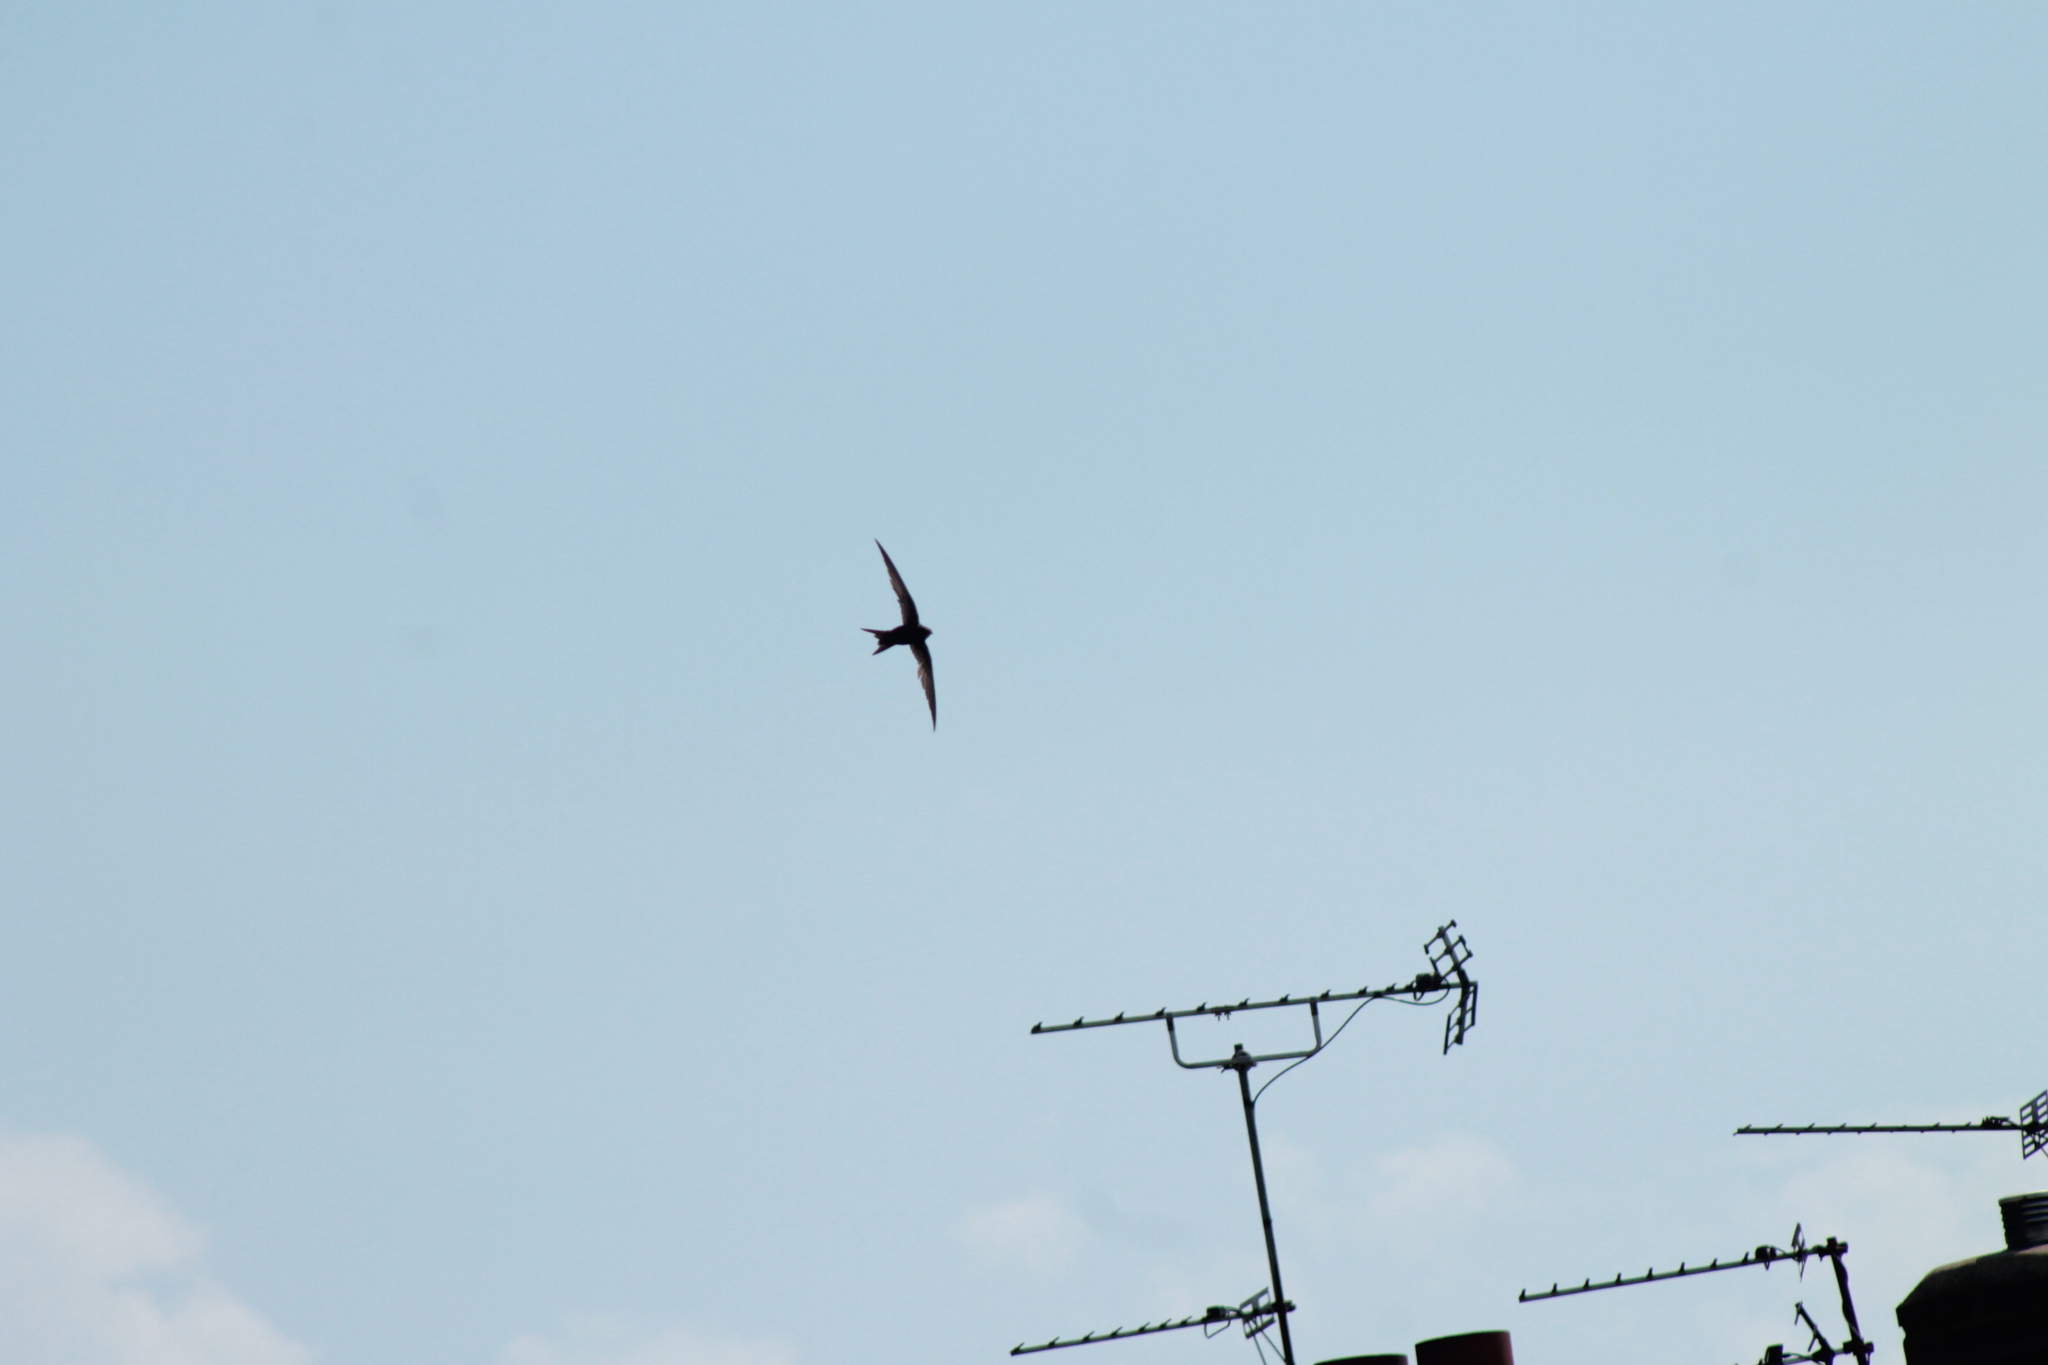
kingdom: Animalia
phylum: Chordata
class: Aves
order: Apodiformes
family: Apodidae
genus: Apus
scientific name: Apus apus
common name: Common swift
